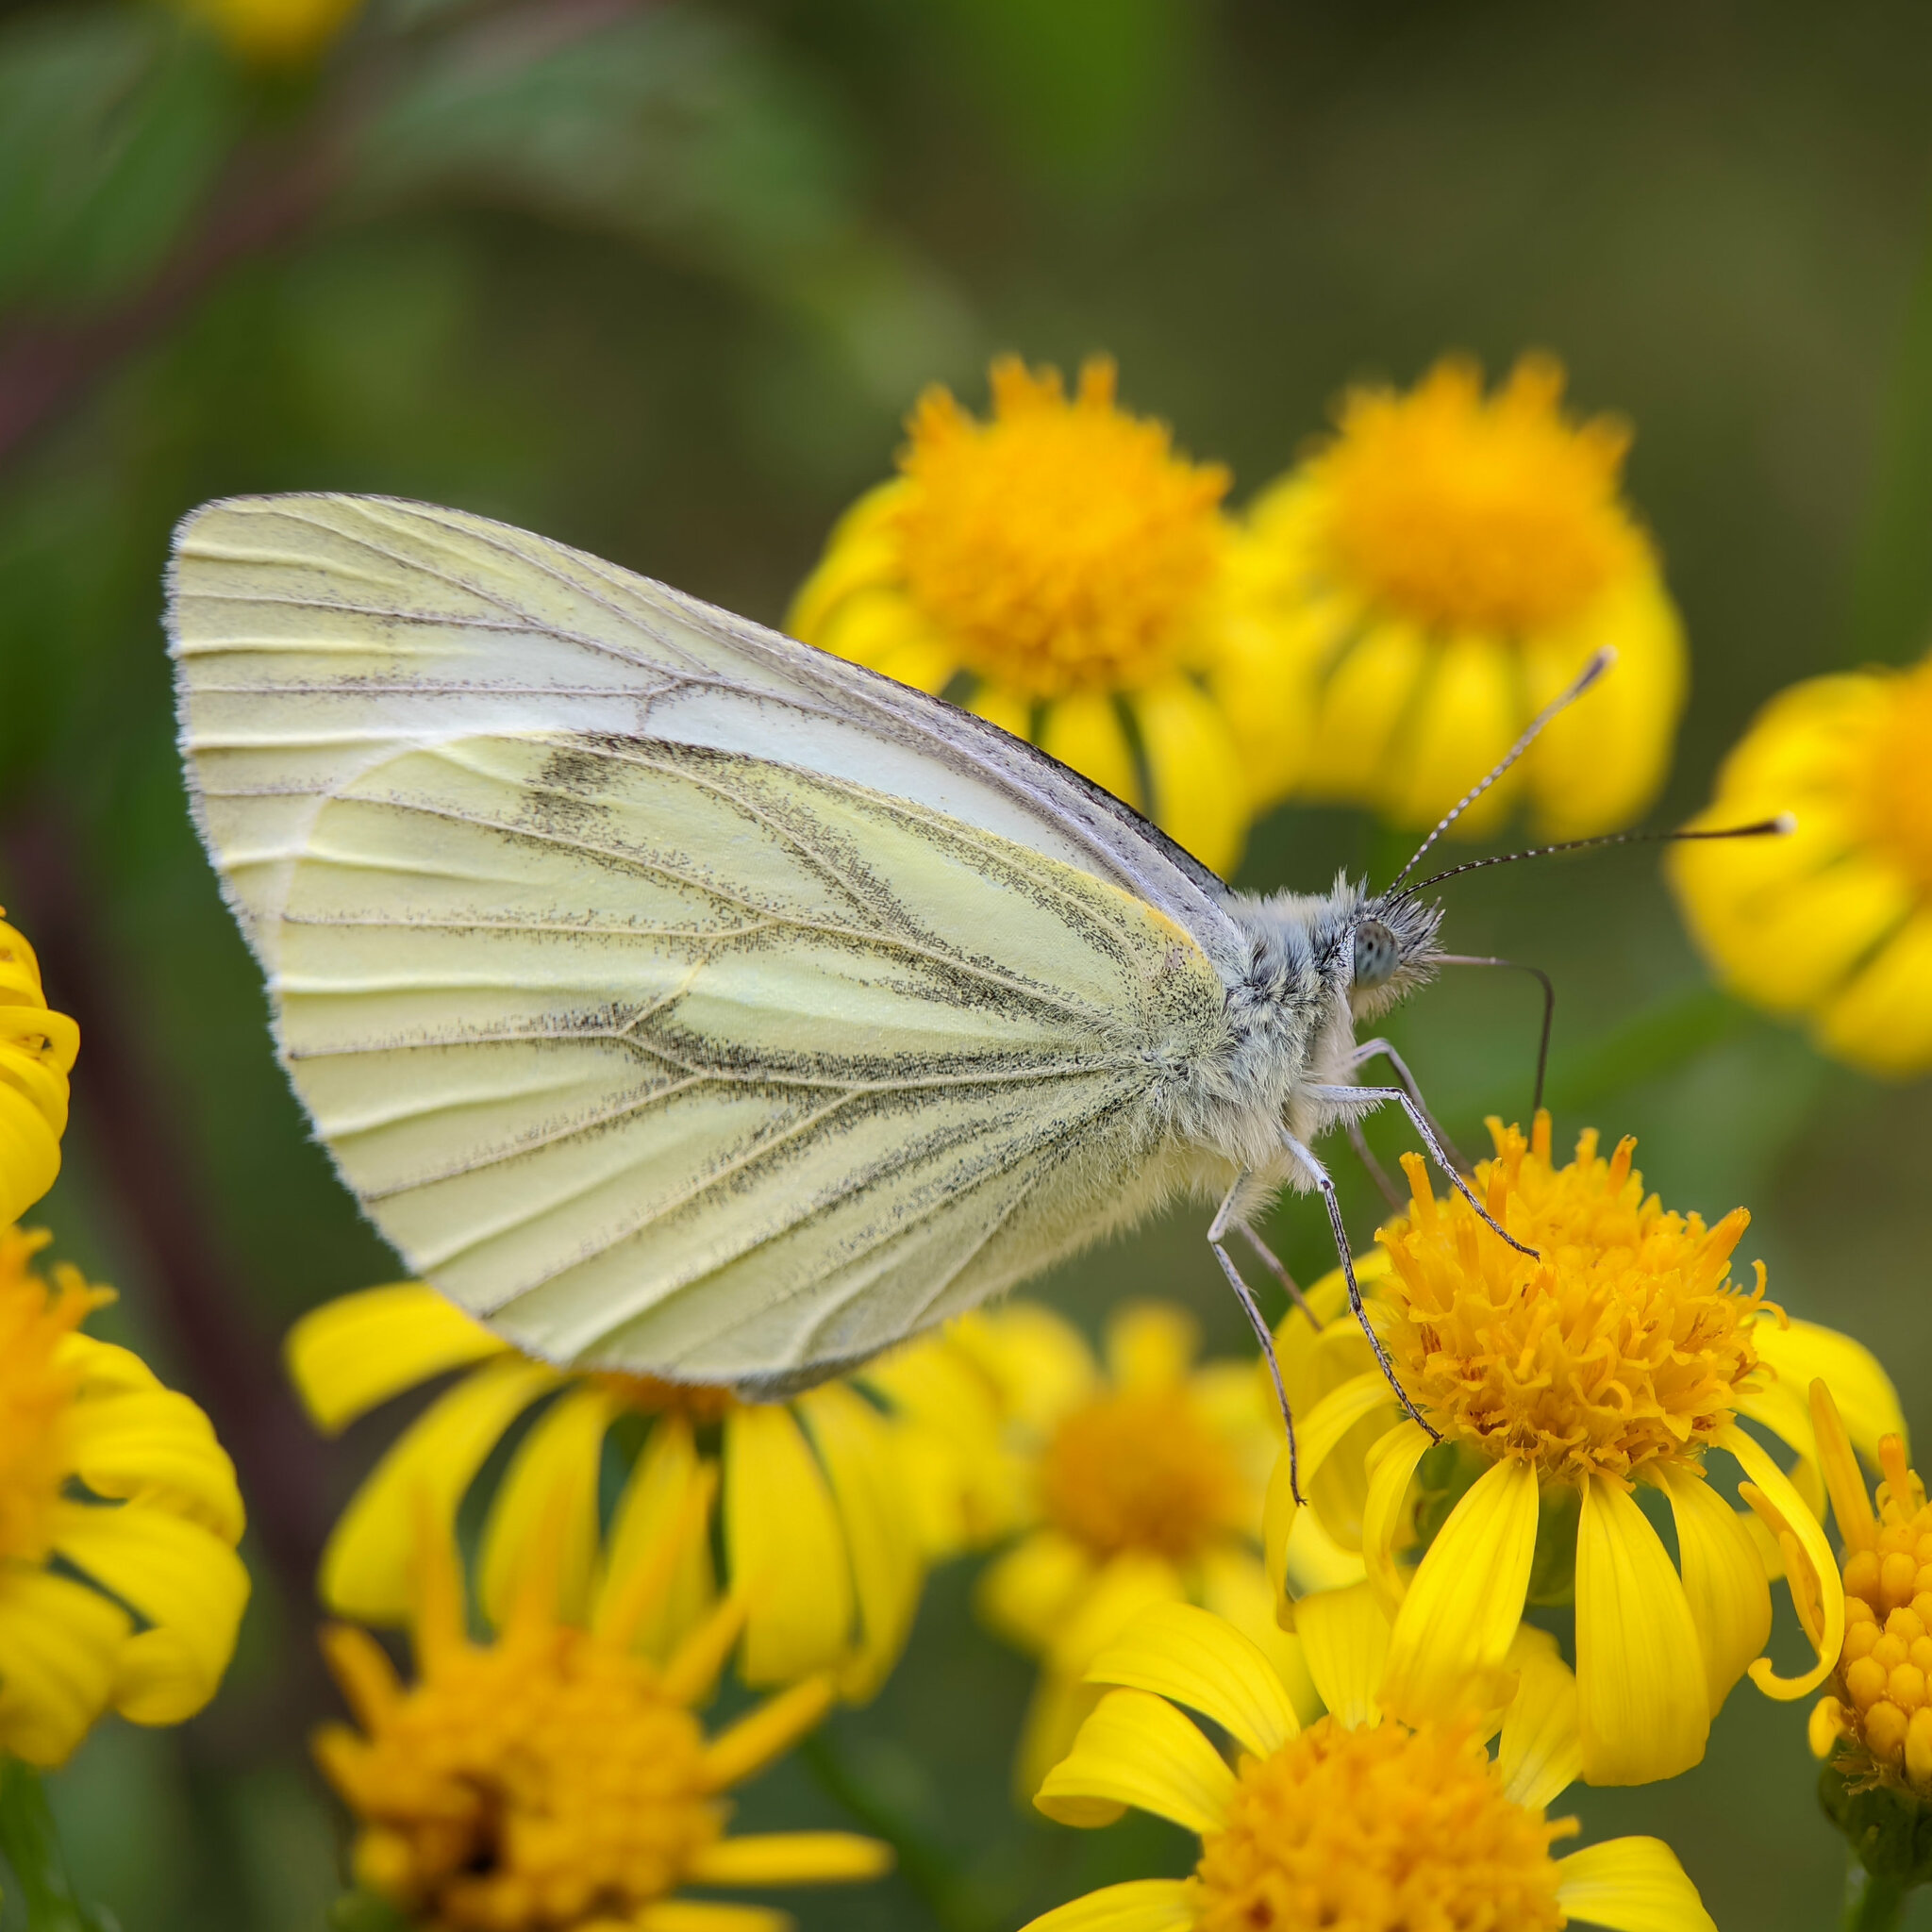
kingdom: Animalia
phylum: Arthropoda
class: Insecta
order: Lepidoptera
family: Pieridae
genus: Pieris
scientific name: Pieris napi
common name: Green-veined white
